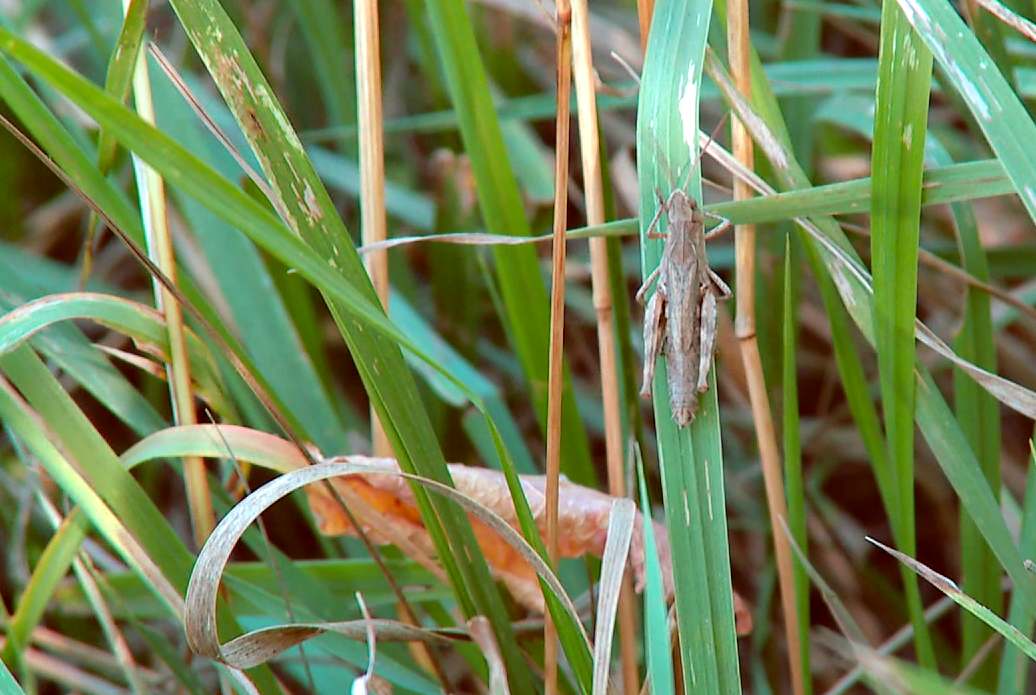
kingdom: Animalia
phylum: Arthropoda
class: Insecta
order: Orthoptera
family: Acrididae
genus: Chorthippus
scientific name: Chorthippus macrocerus
